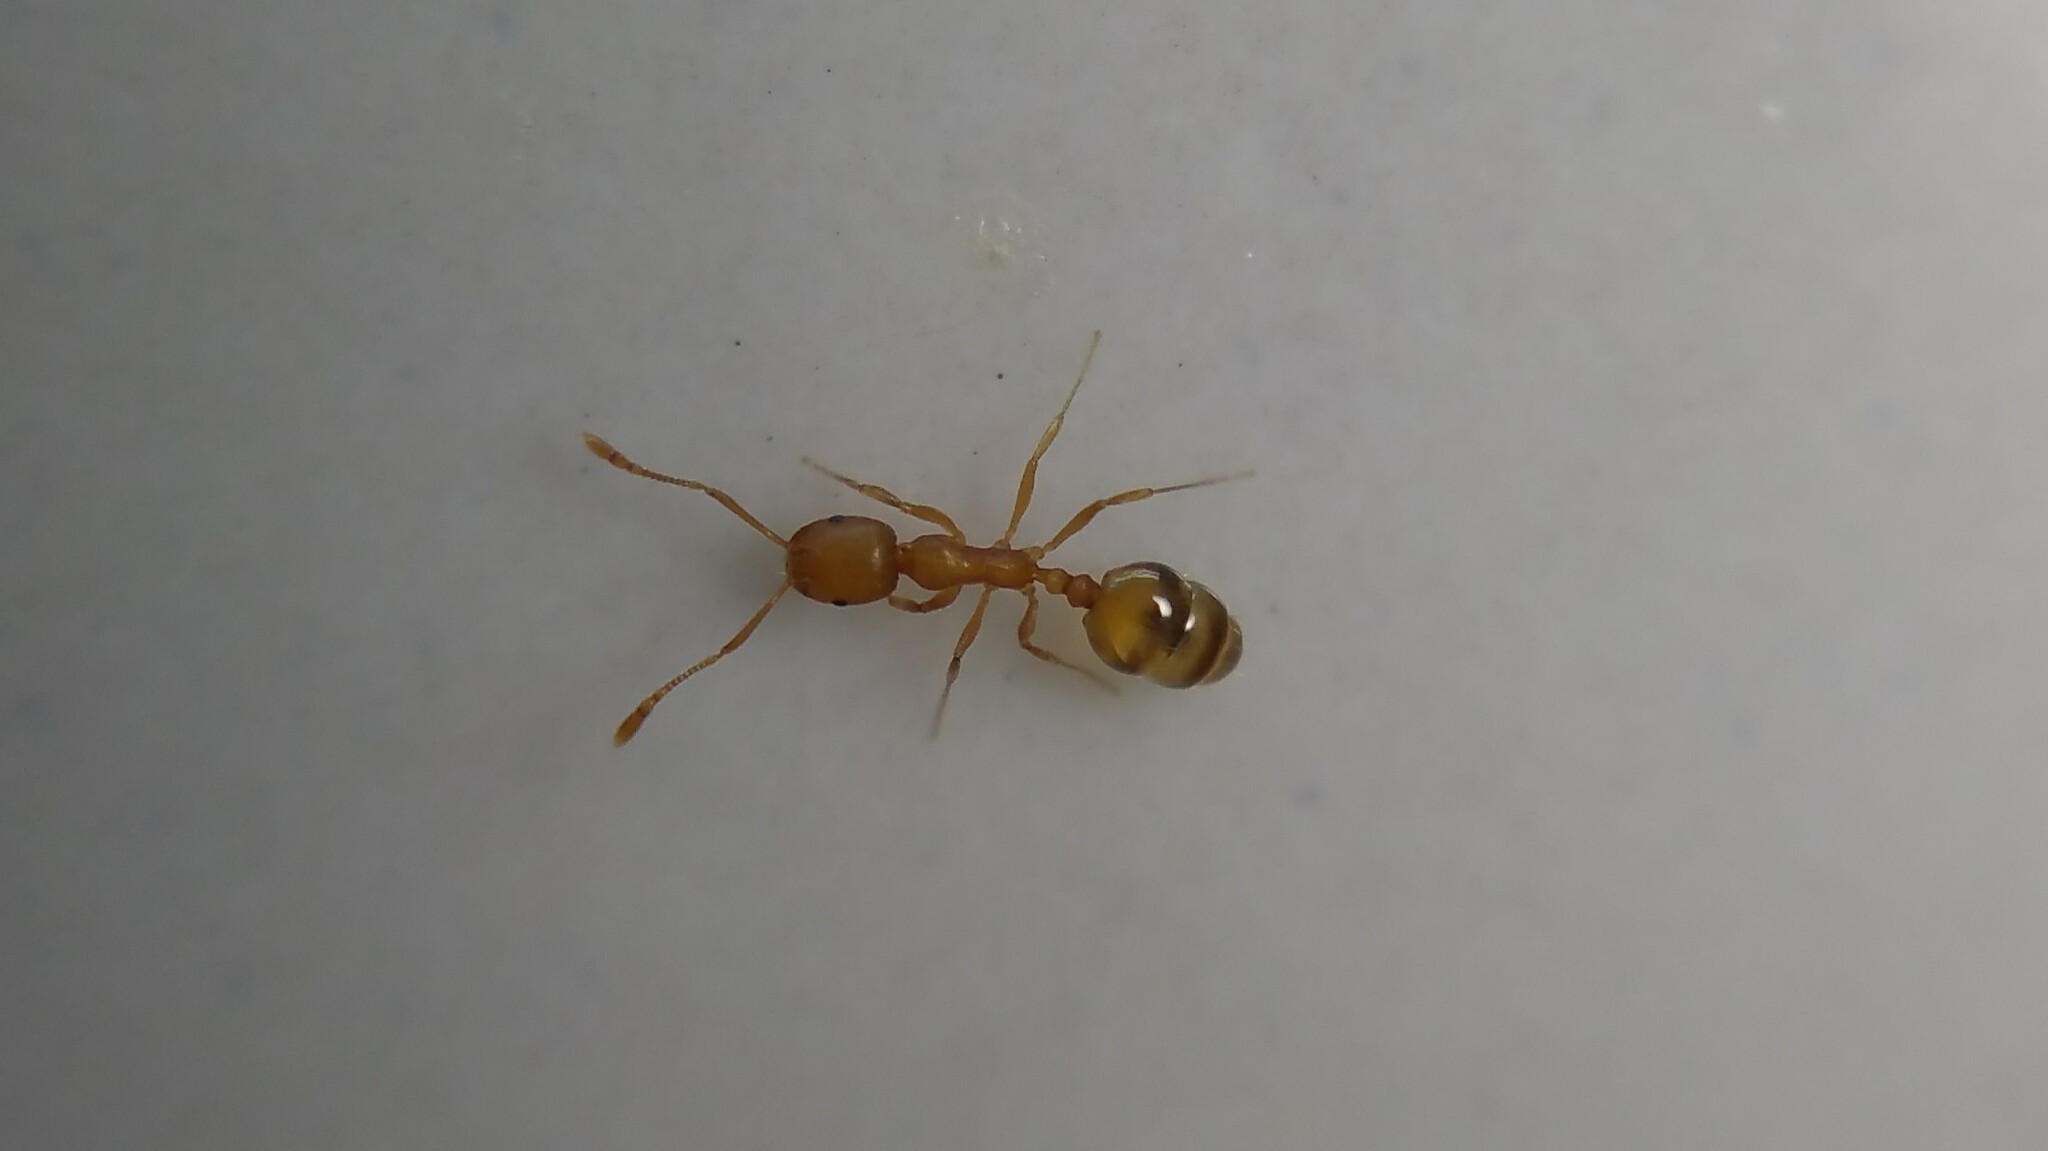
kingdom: Animalia
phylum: Arthropoda
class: Insecta
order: Hymenoptera
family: Formicidae
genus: Monomorium
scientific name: Monomorium pharaonis
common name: Pharaoh ant
